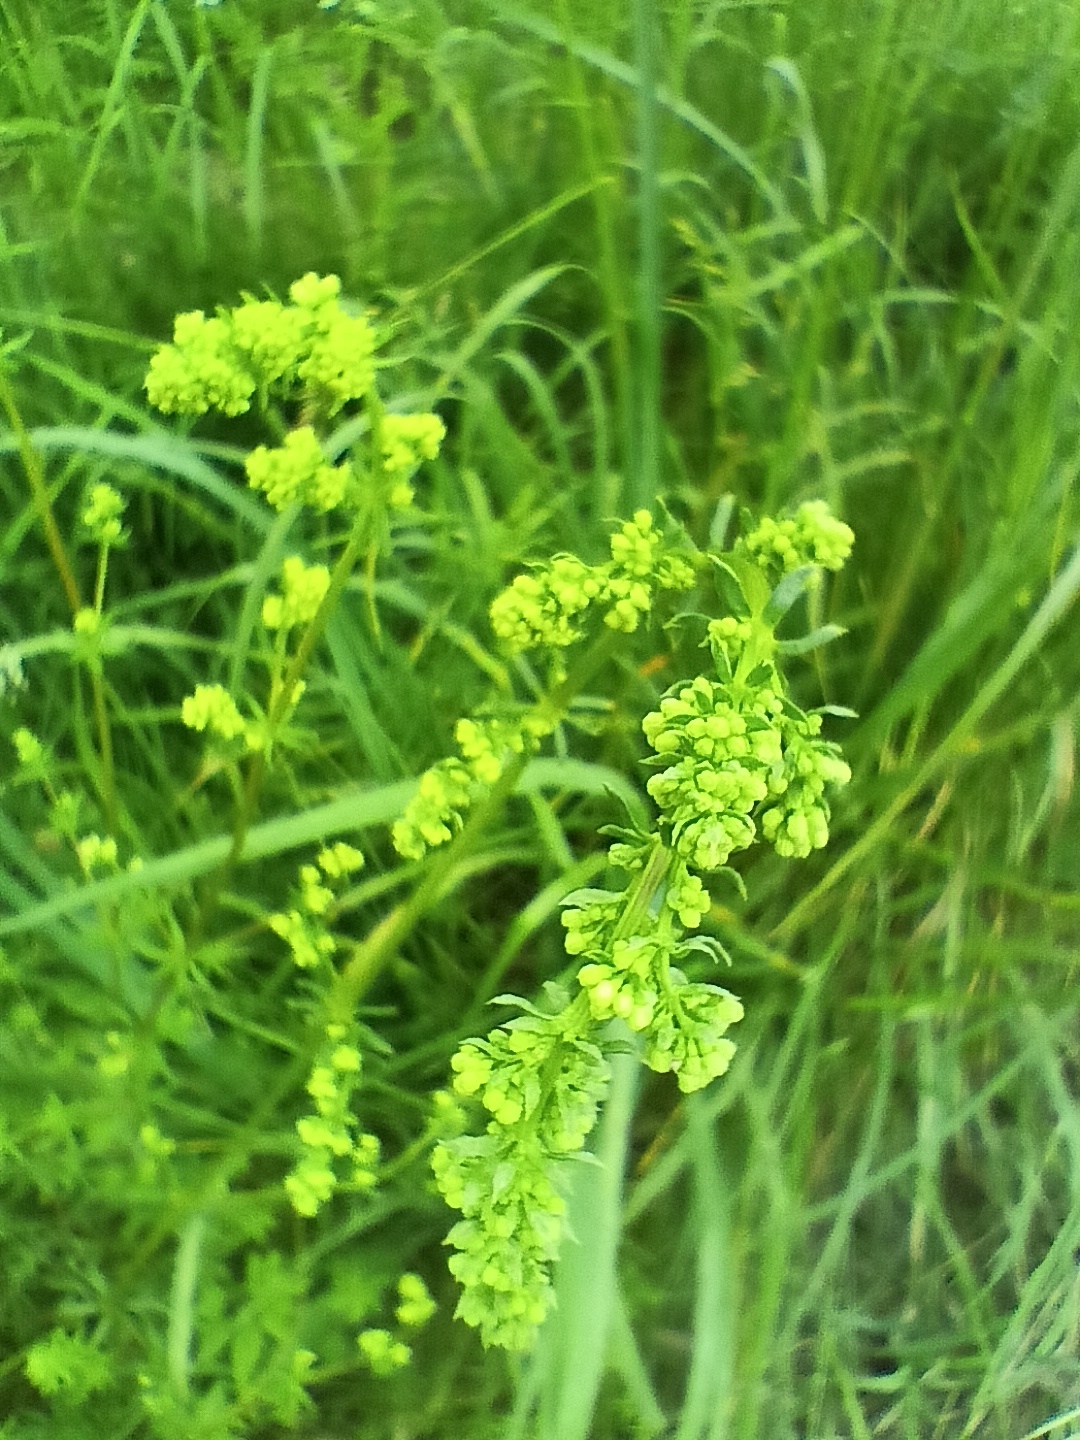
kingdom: Plantae
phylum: Tracheophyta
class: Magnoliopsida
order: Gentianales
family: Rubiaceae
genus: Galium
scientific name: Galium mollugo
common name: Hedge bedstraw
